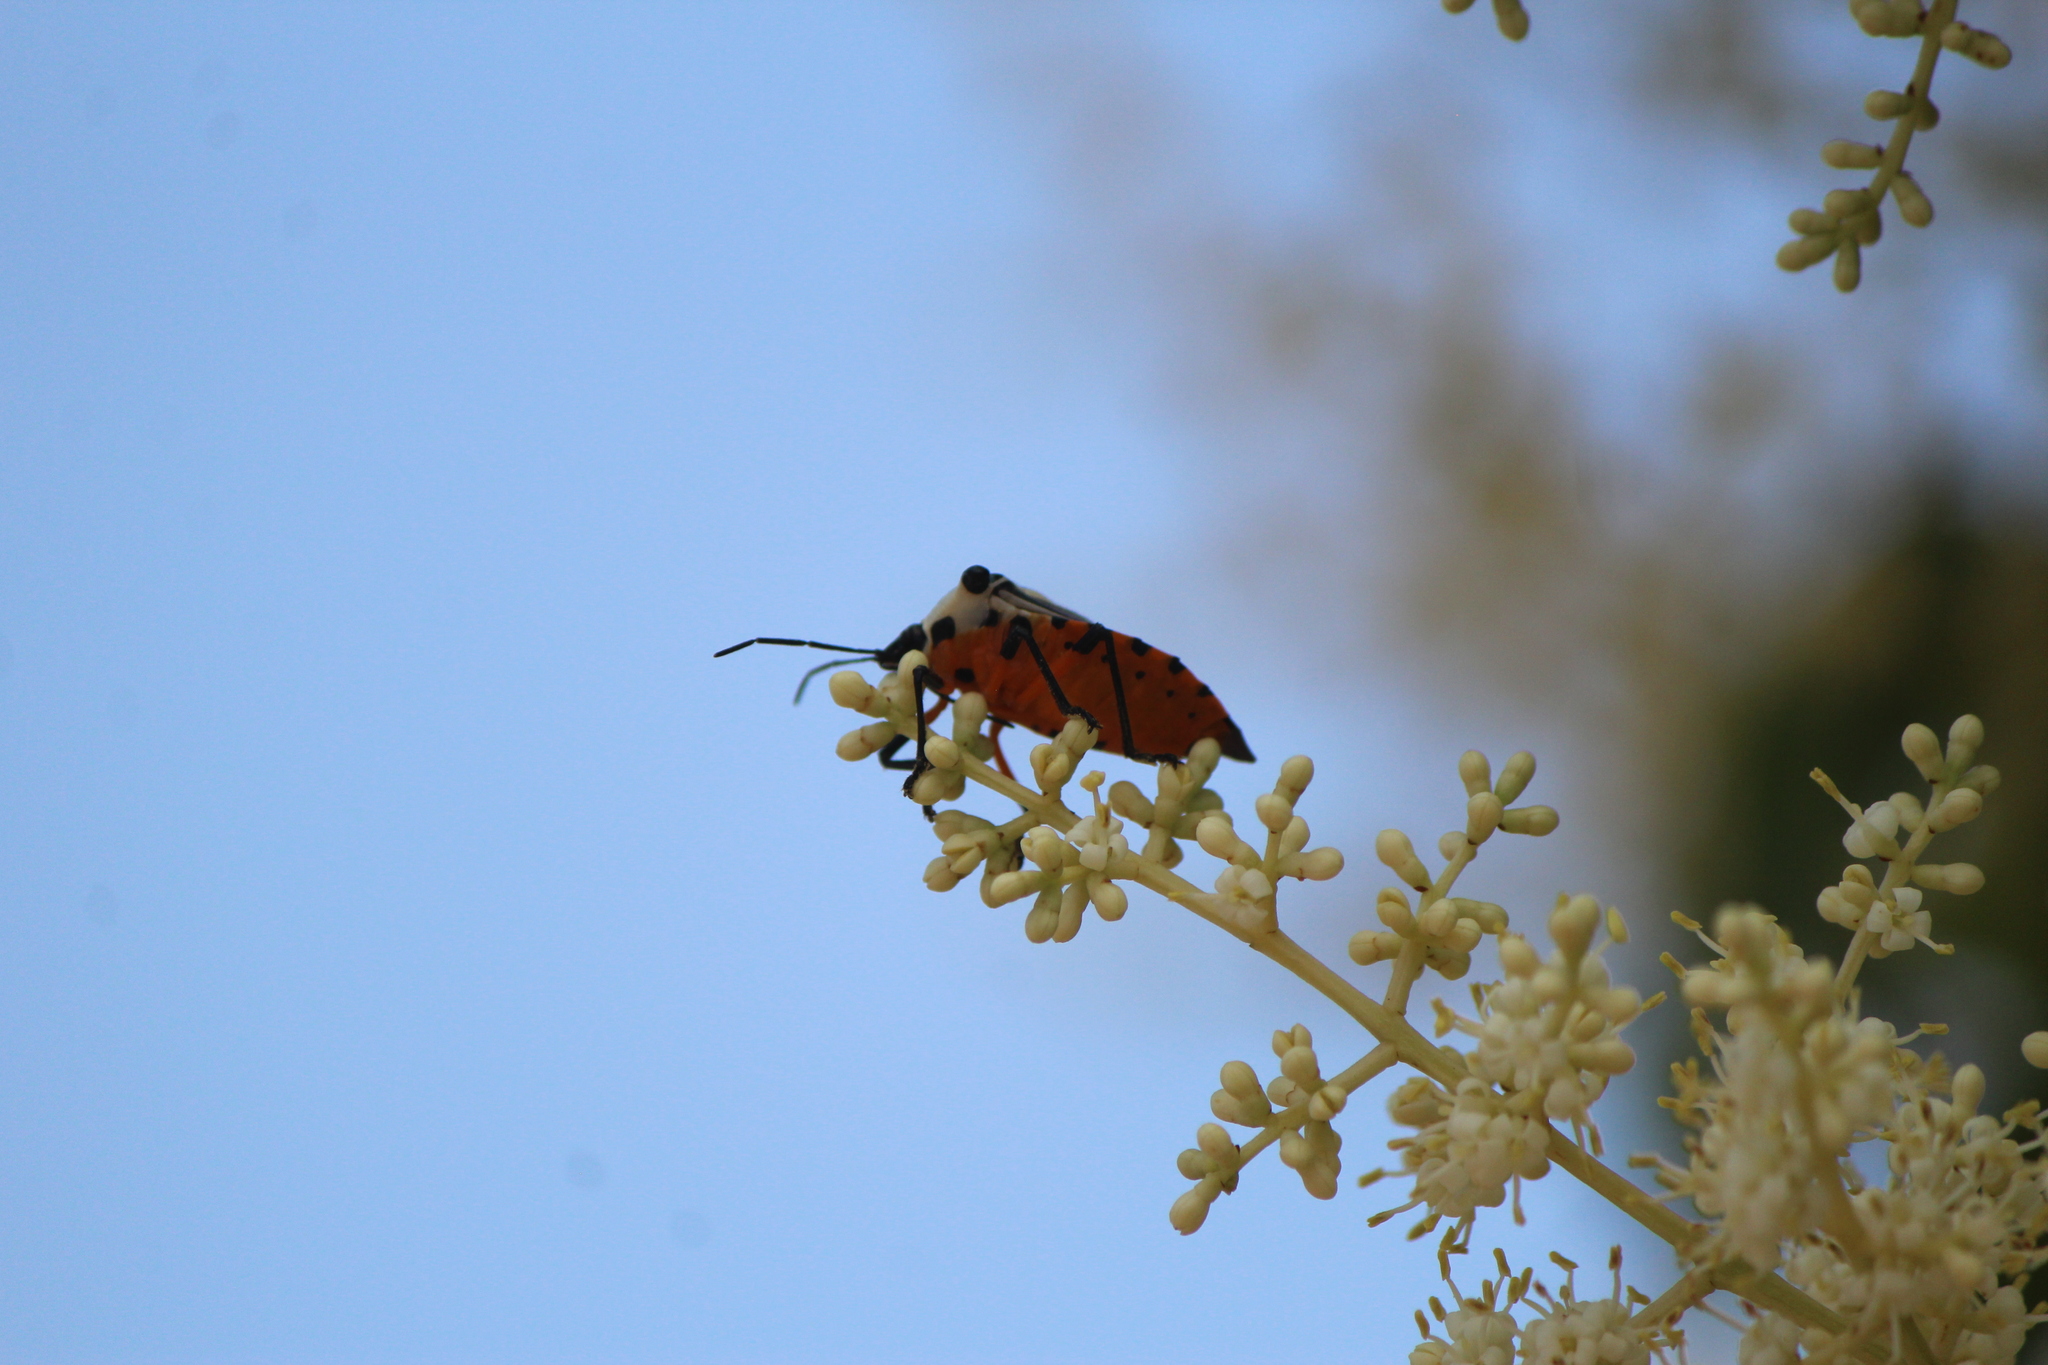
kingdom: Animalia
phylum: Arthropoda
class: Insecta
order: Hemiptera
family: Pentatomidae
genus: Ramosiana
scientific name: Ramosiana insignis
